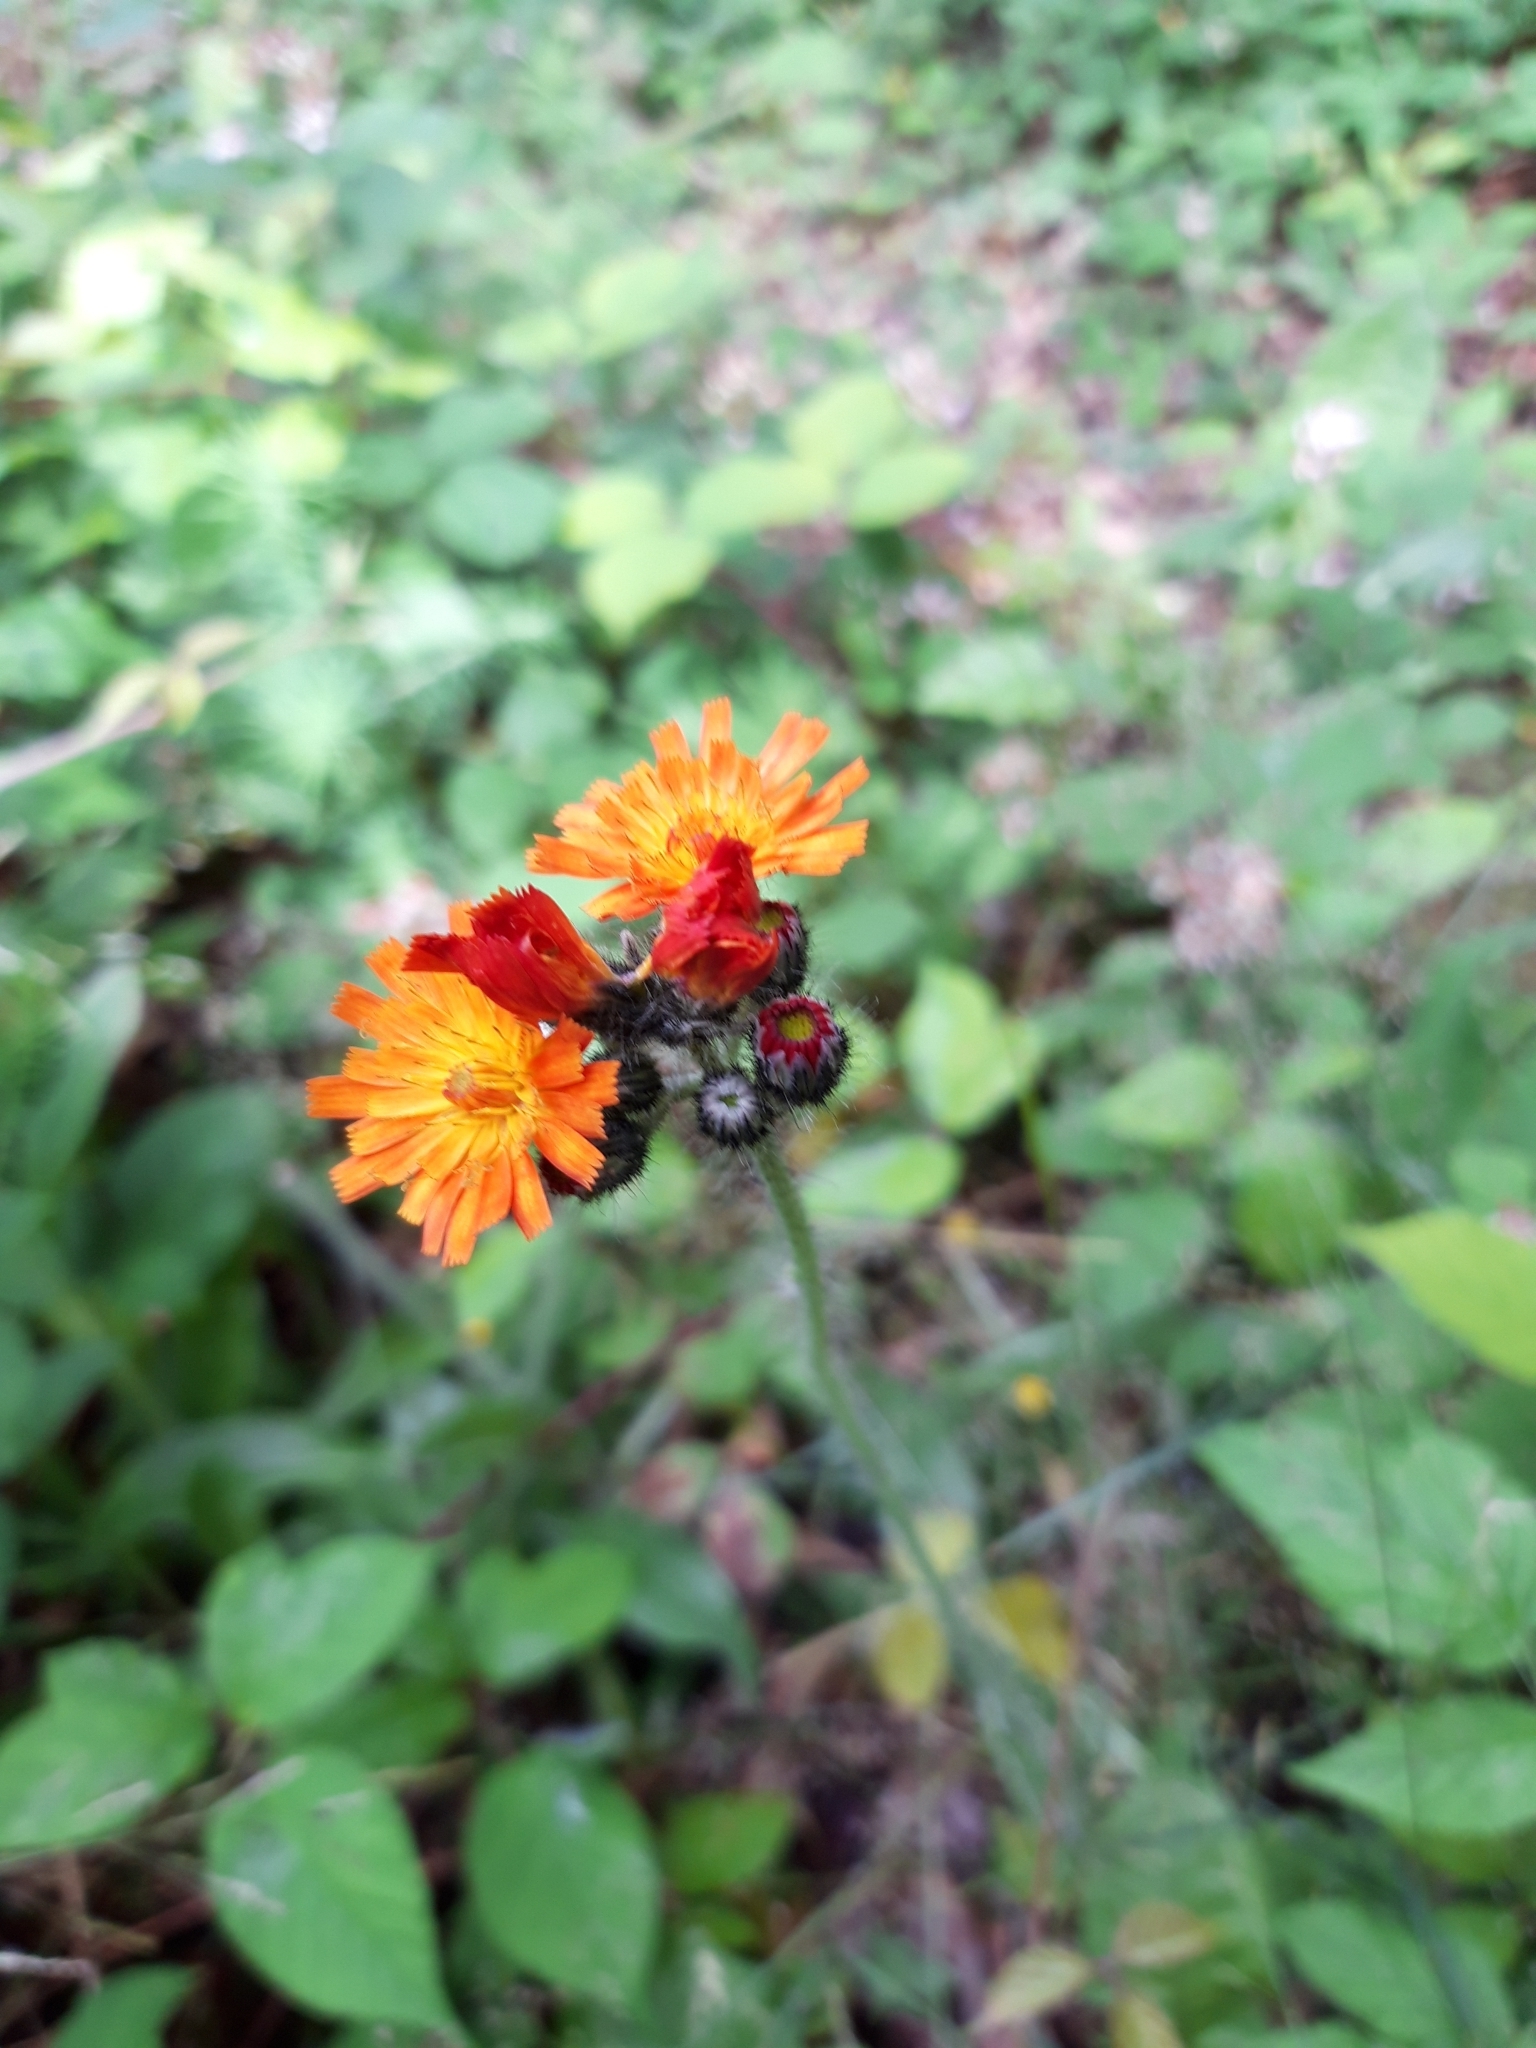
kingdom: Plantae
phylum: Tracheophyta
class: Magnoliopsida
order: Asterales
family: Asteraceae
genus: Pilosella
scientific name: Pilosella aurantiaca
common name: Fox-and-cubs
